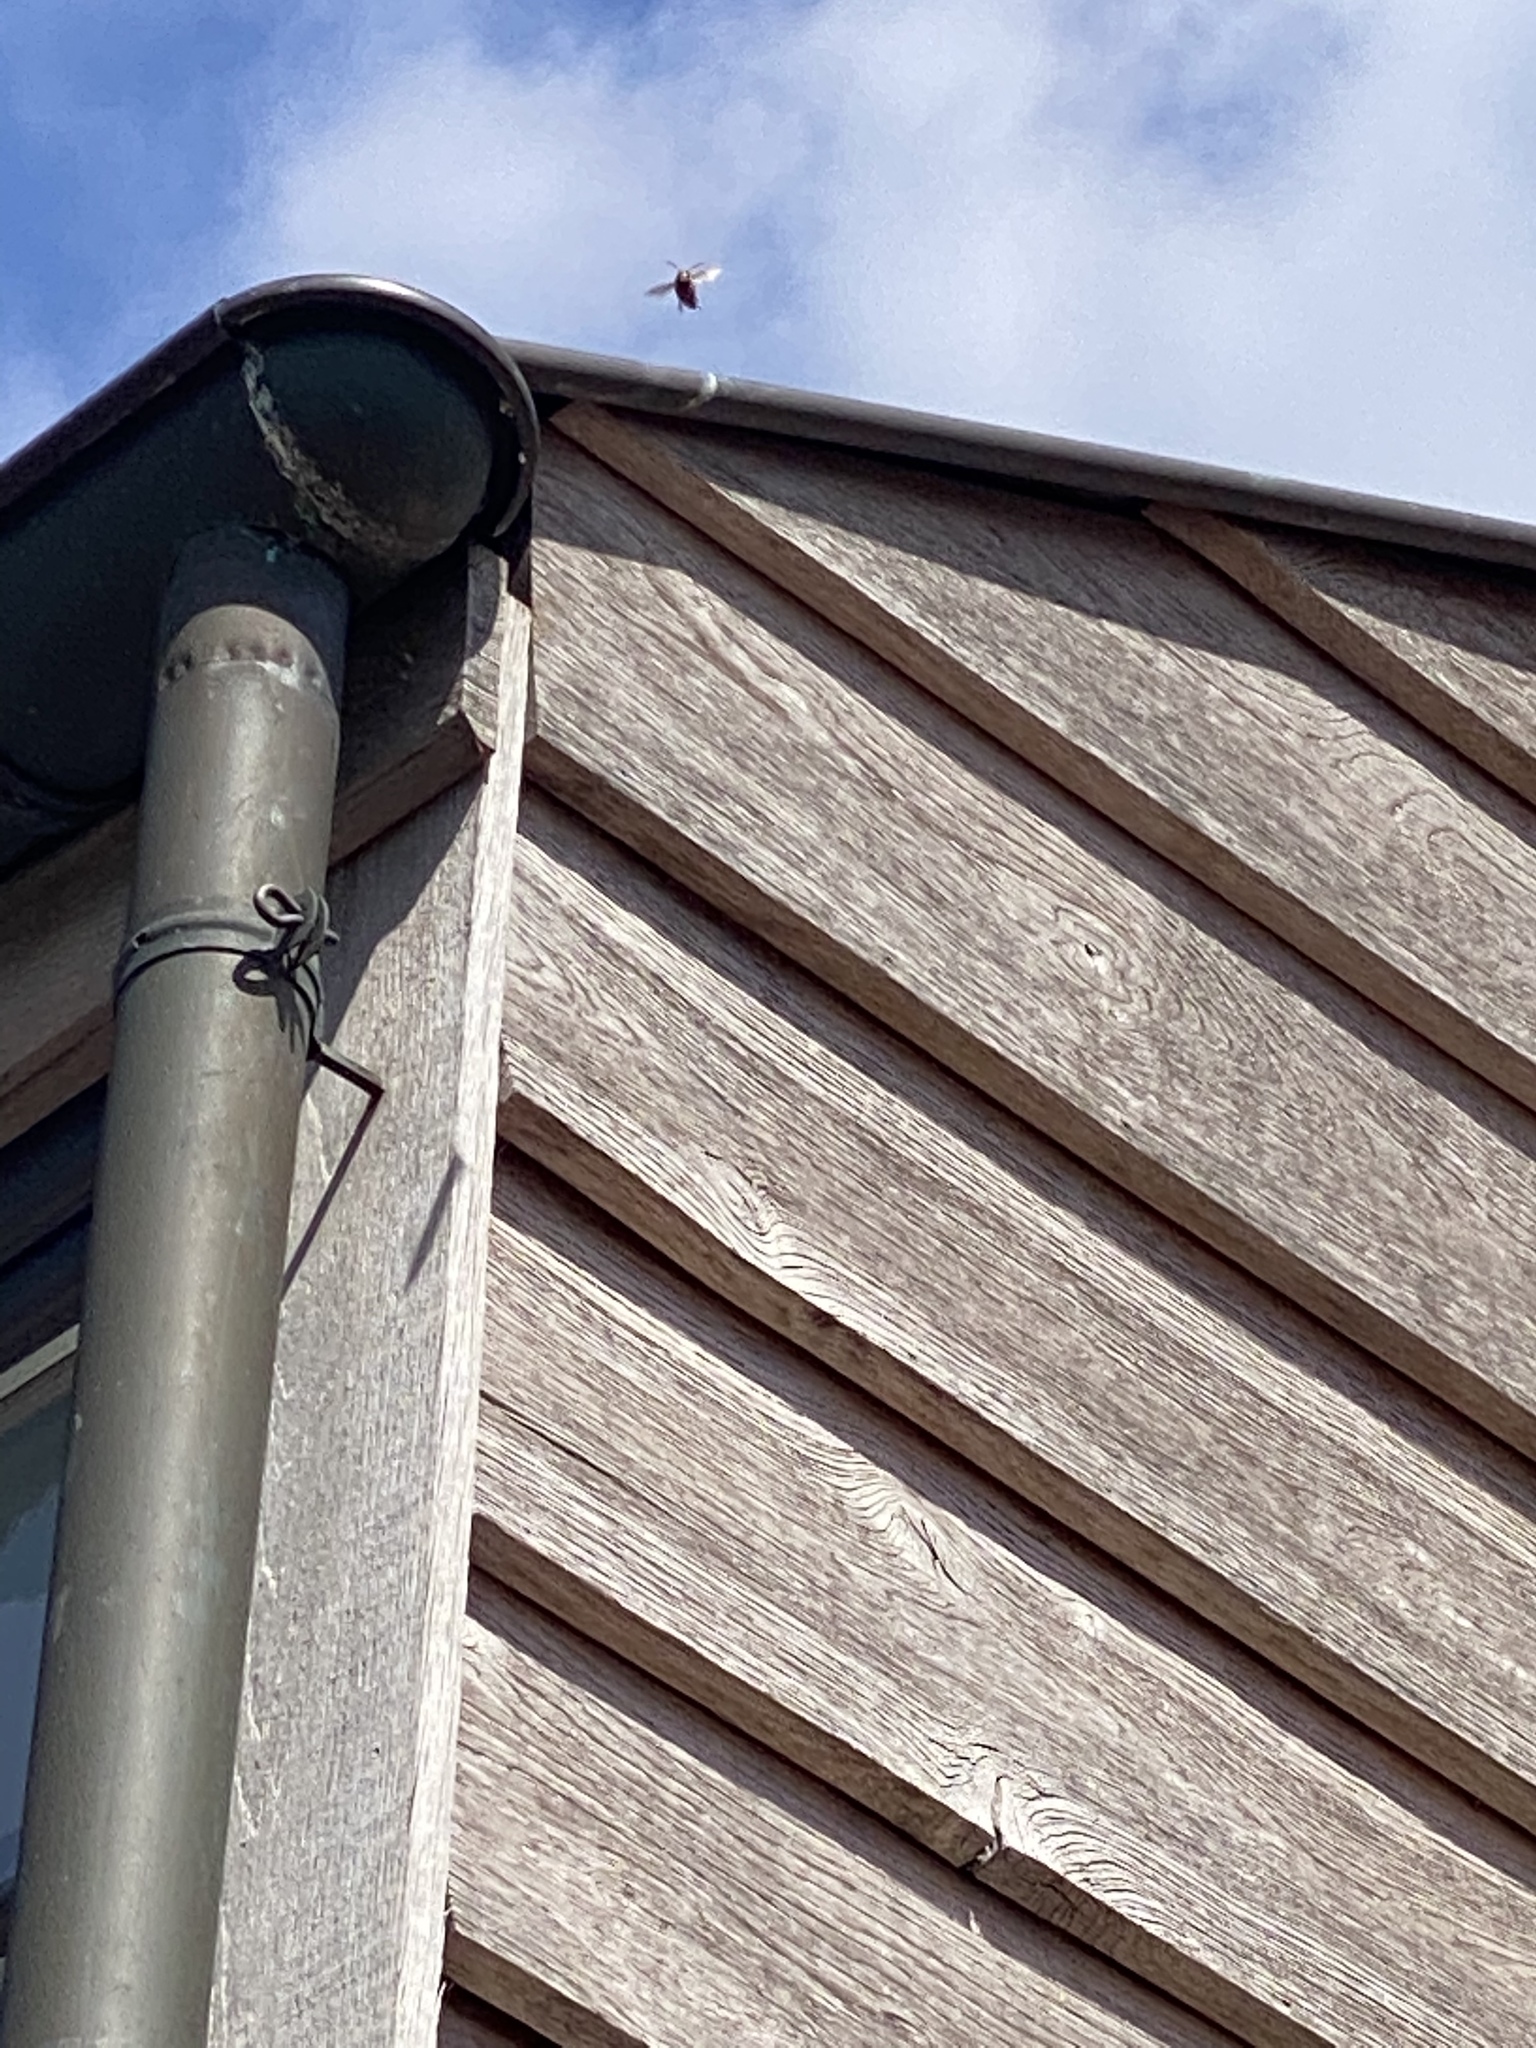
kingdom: Animalia
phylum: Arthropoda
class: Insecta
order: Hymenoptera
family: Vespidae
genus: Vespa
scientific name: Vespa crabro
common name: Hornet
